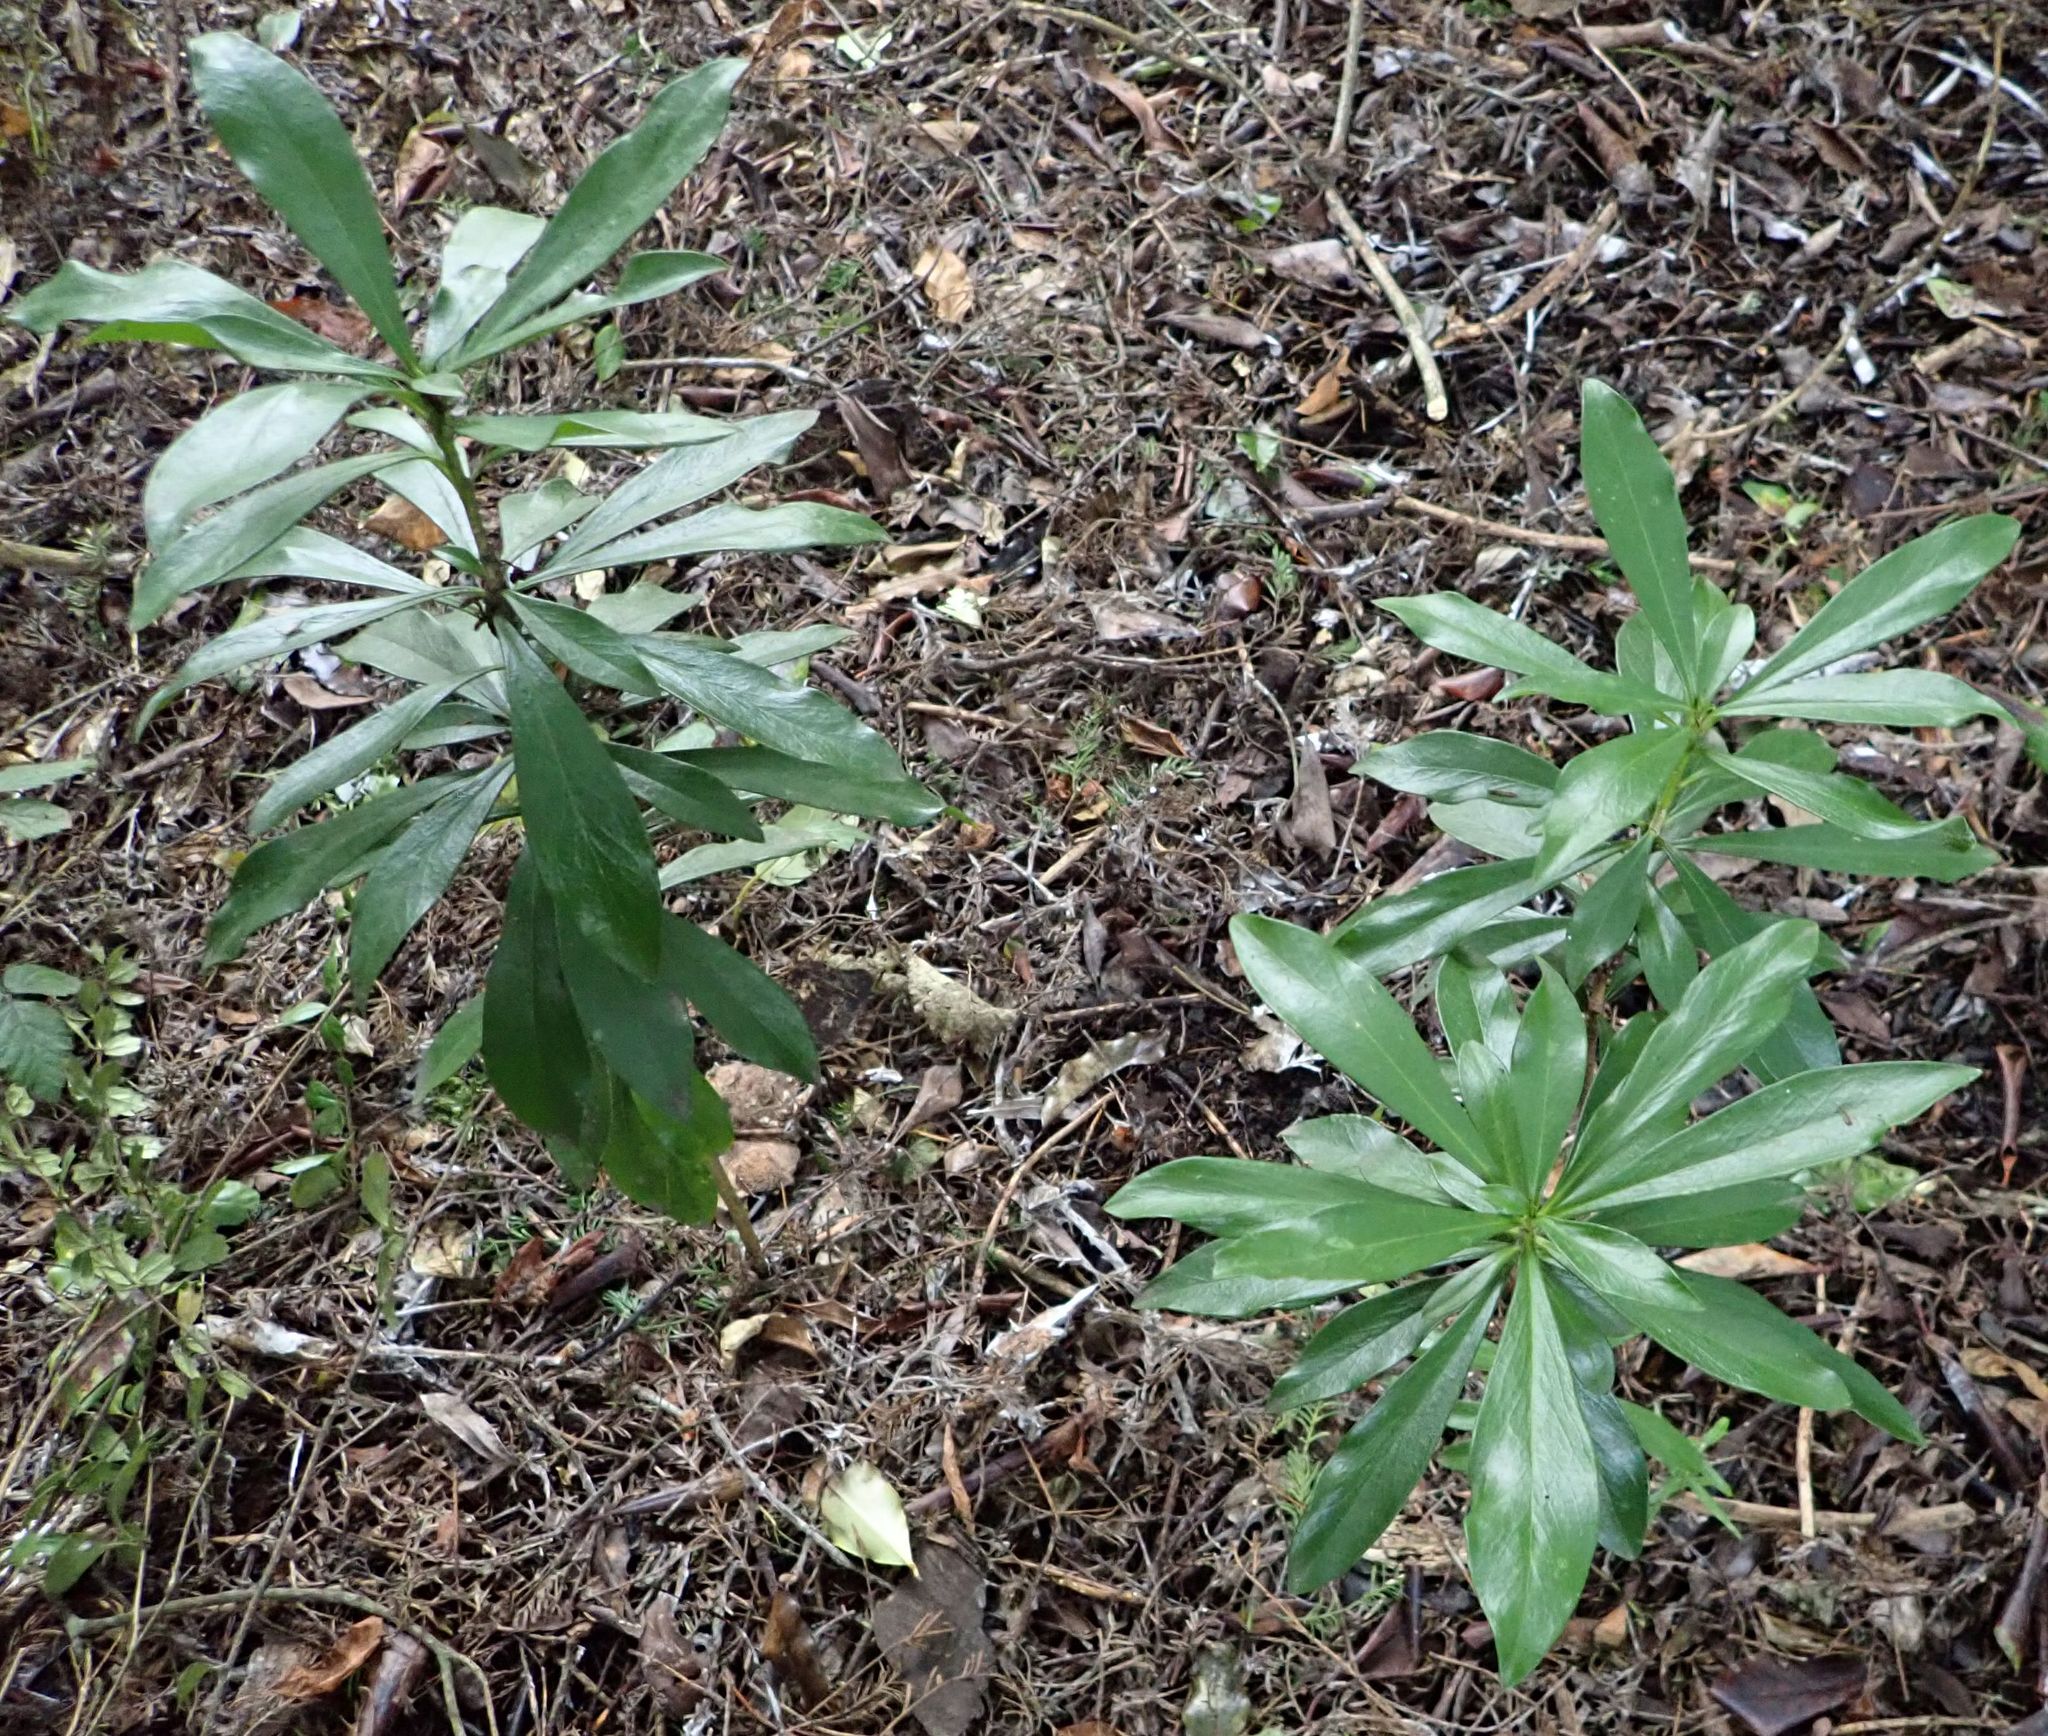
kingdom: Plantae
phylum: Tracheophyta
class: Magnoliopsida
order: Malvales
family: Thymelaeaceae
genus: Daphne
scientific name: Daphne laureola
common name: Spurge-laurel
